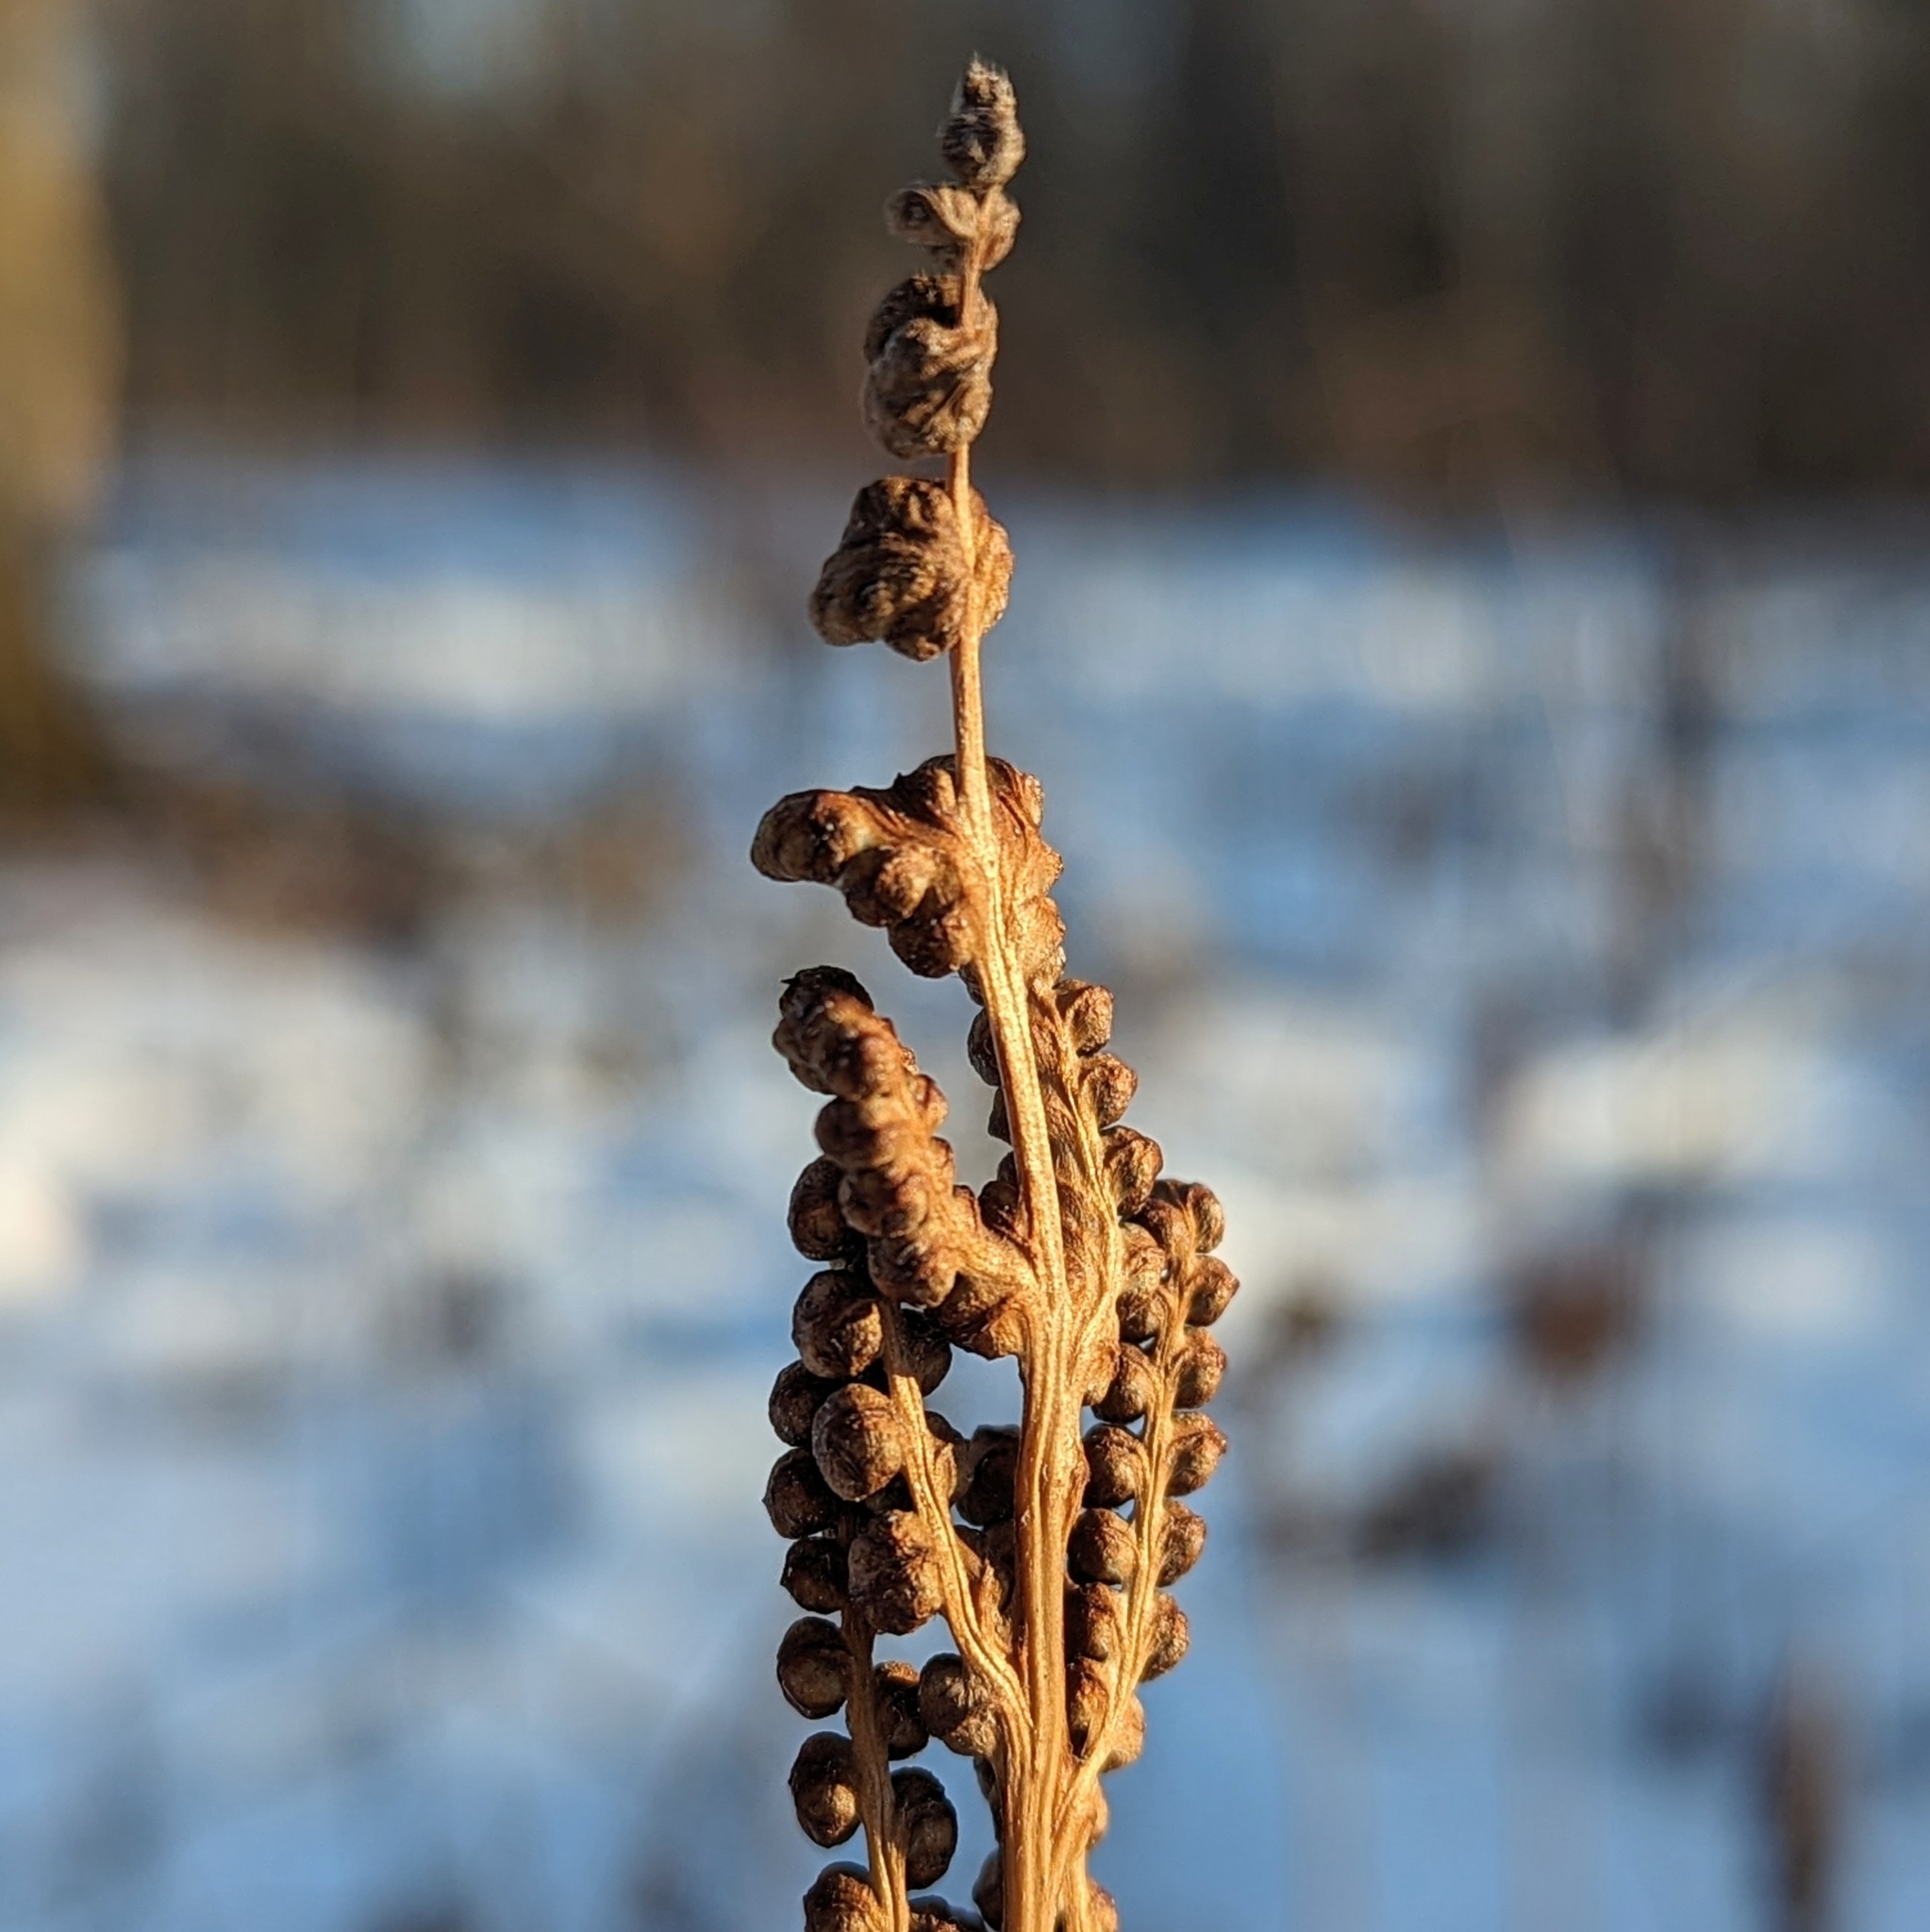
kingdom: Plantae
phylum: Tracheophyta
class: Polypodiopsida
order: Polypodiales
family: Onocleaceae
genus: Onoclea
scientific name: Onoclea sensibilis
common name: Sensitive fern
